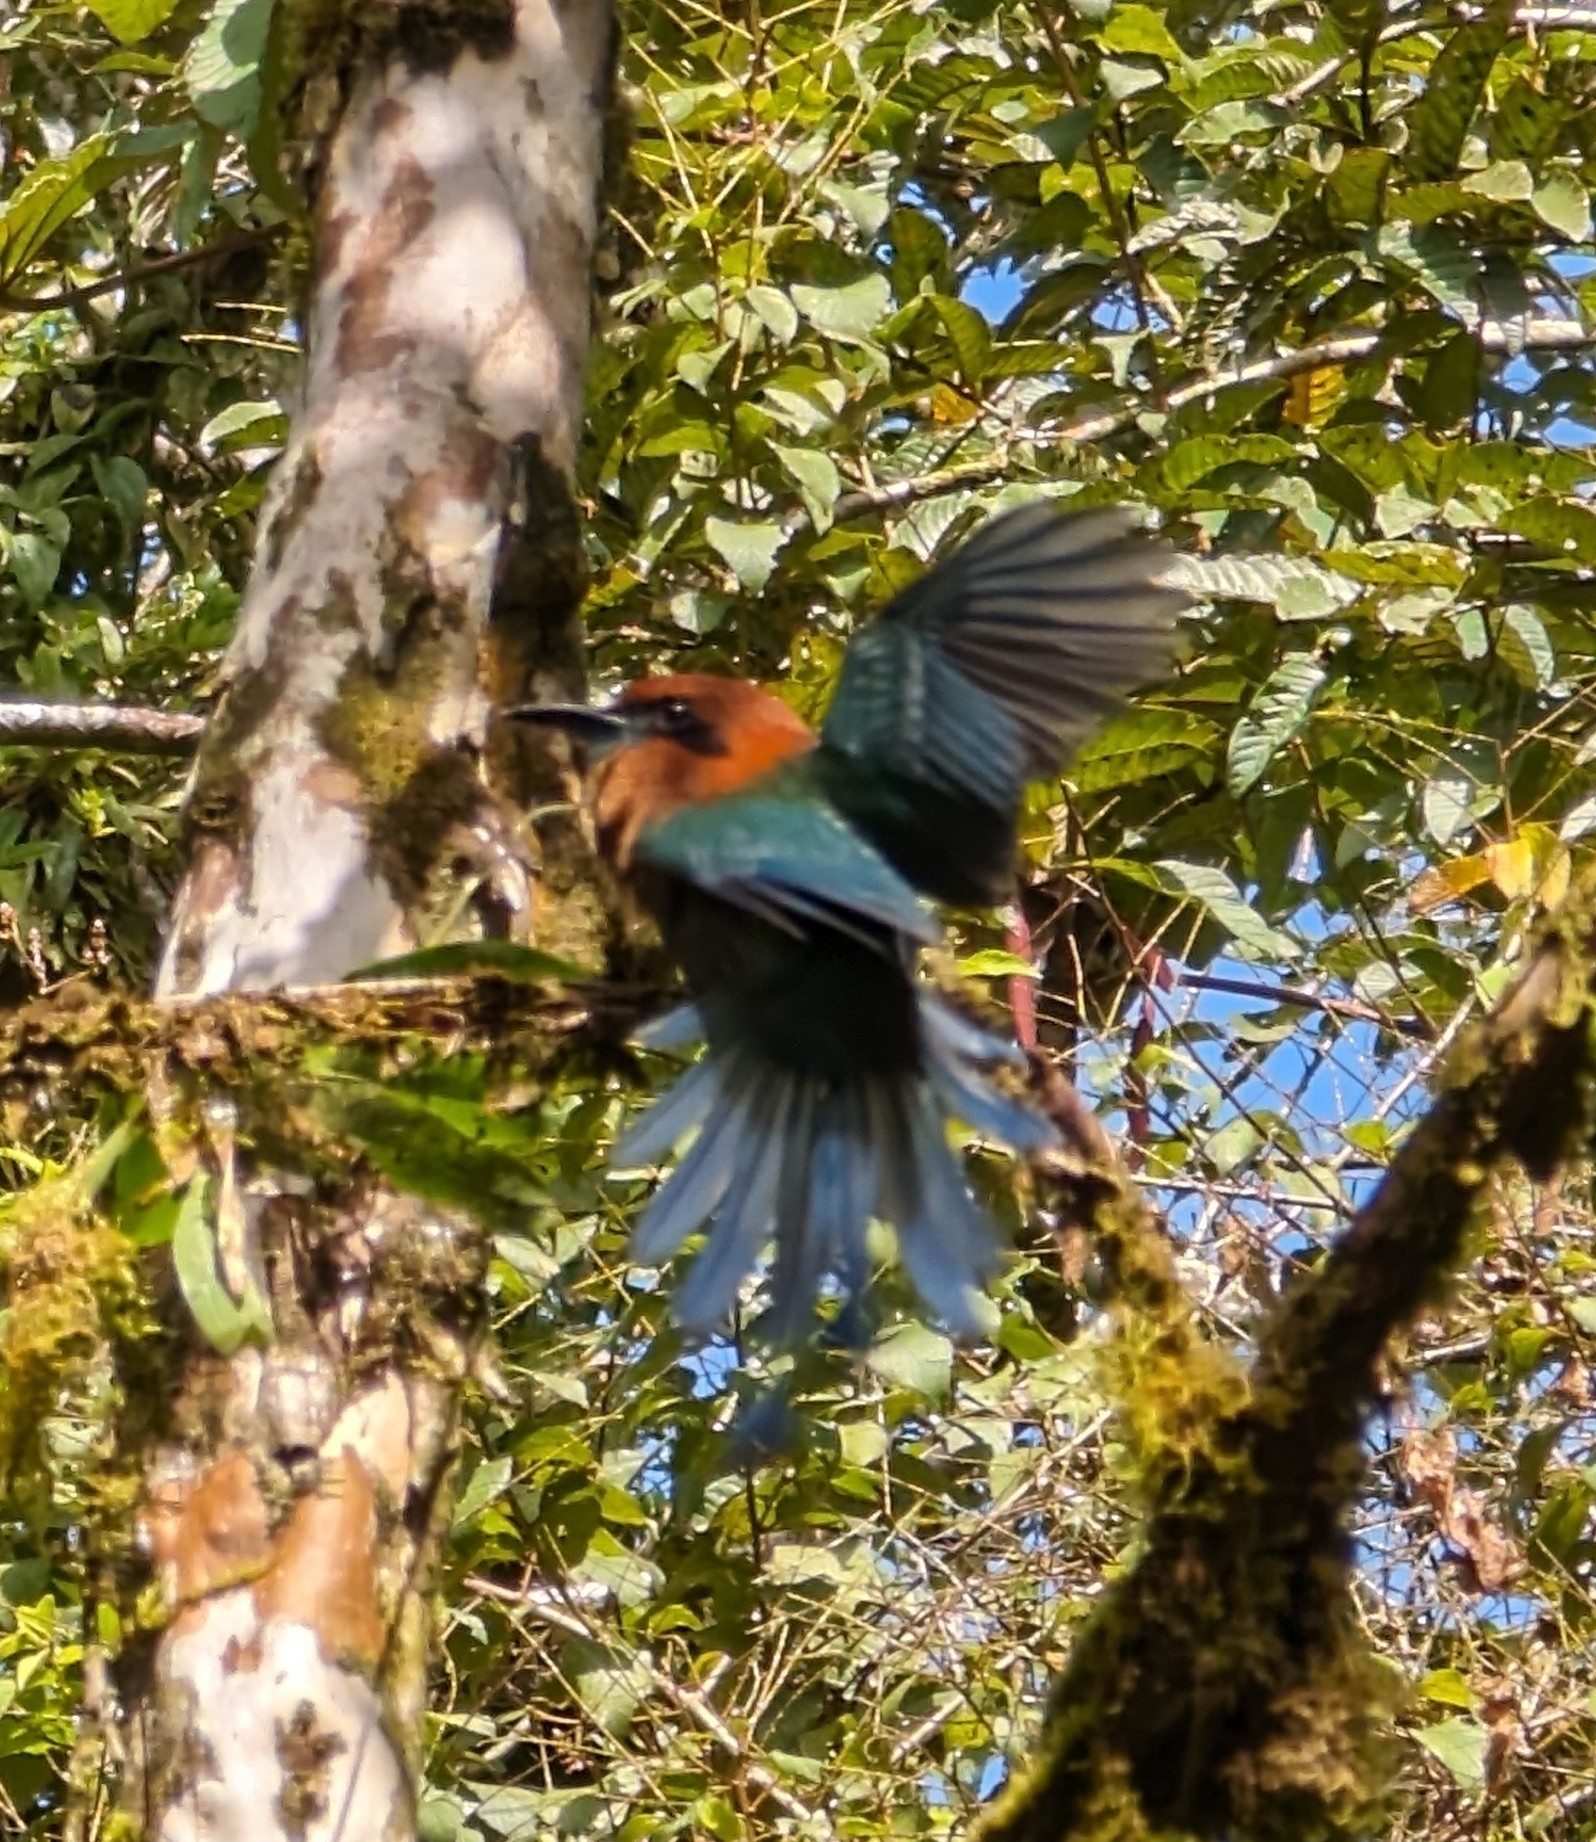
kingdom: Animalia
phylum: Chordata
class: Aves
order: Coraciiformes
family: Momotidae
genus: Electron
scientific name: Electron platyrhynchum
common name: Broad-billed motmot
